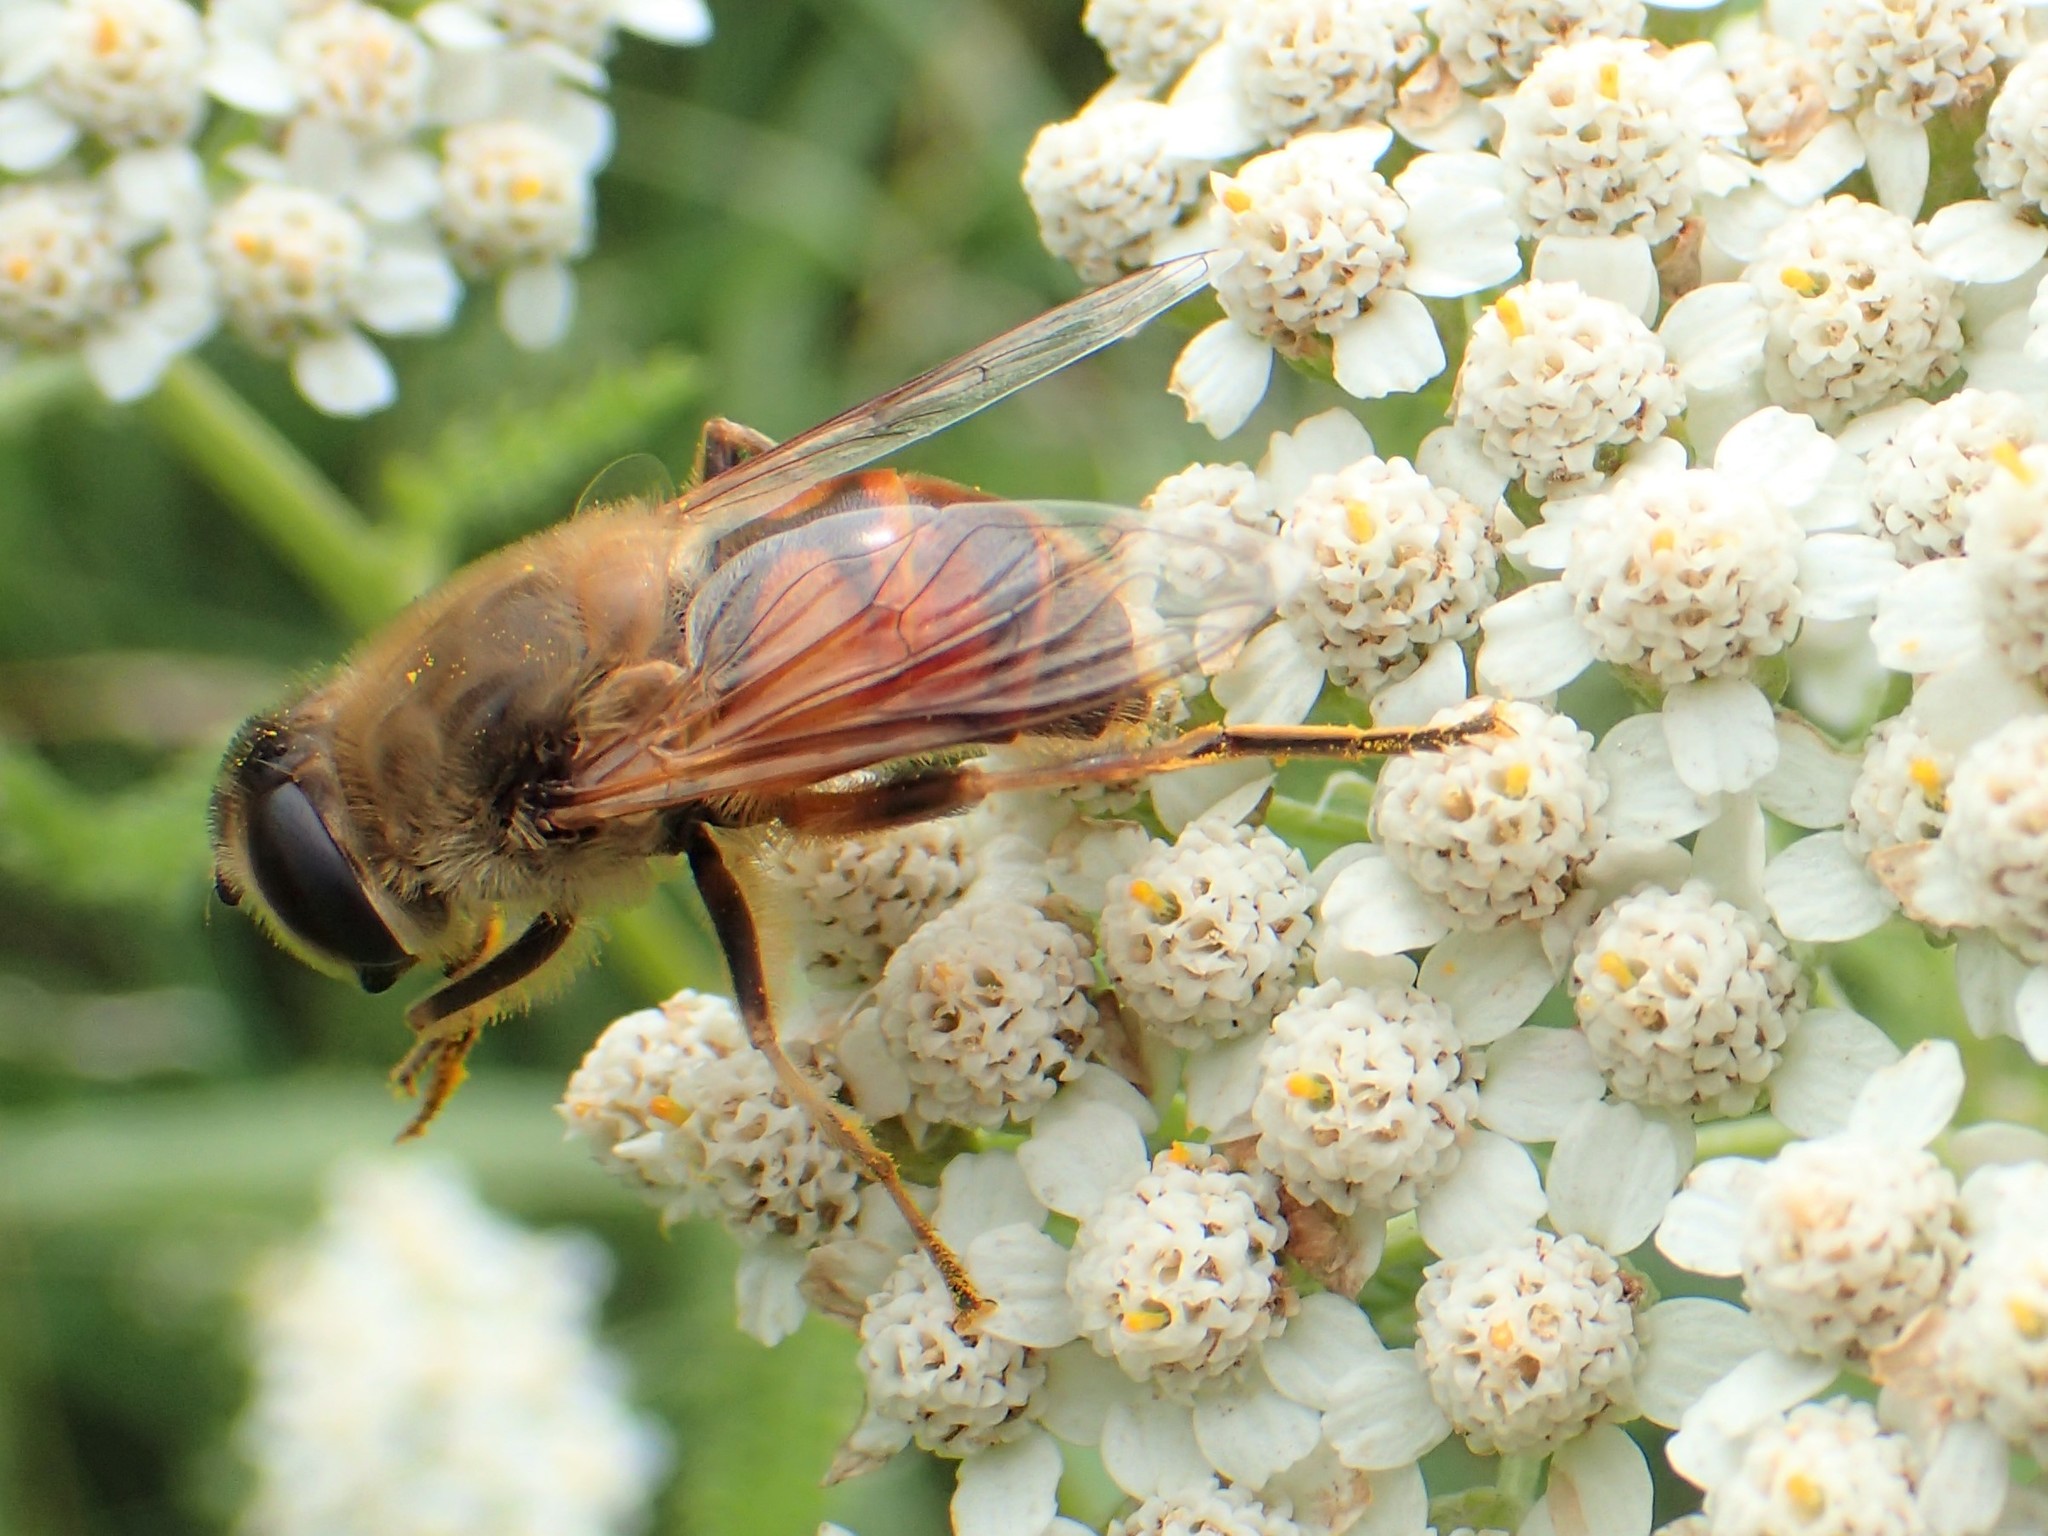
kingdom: Animalia
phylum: Arthropoda
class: Insecta
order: Diptera
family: Syrphidae
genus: Eristalis
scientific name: Eristalis tenax
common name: Drone fly
